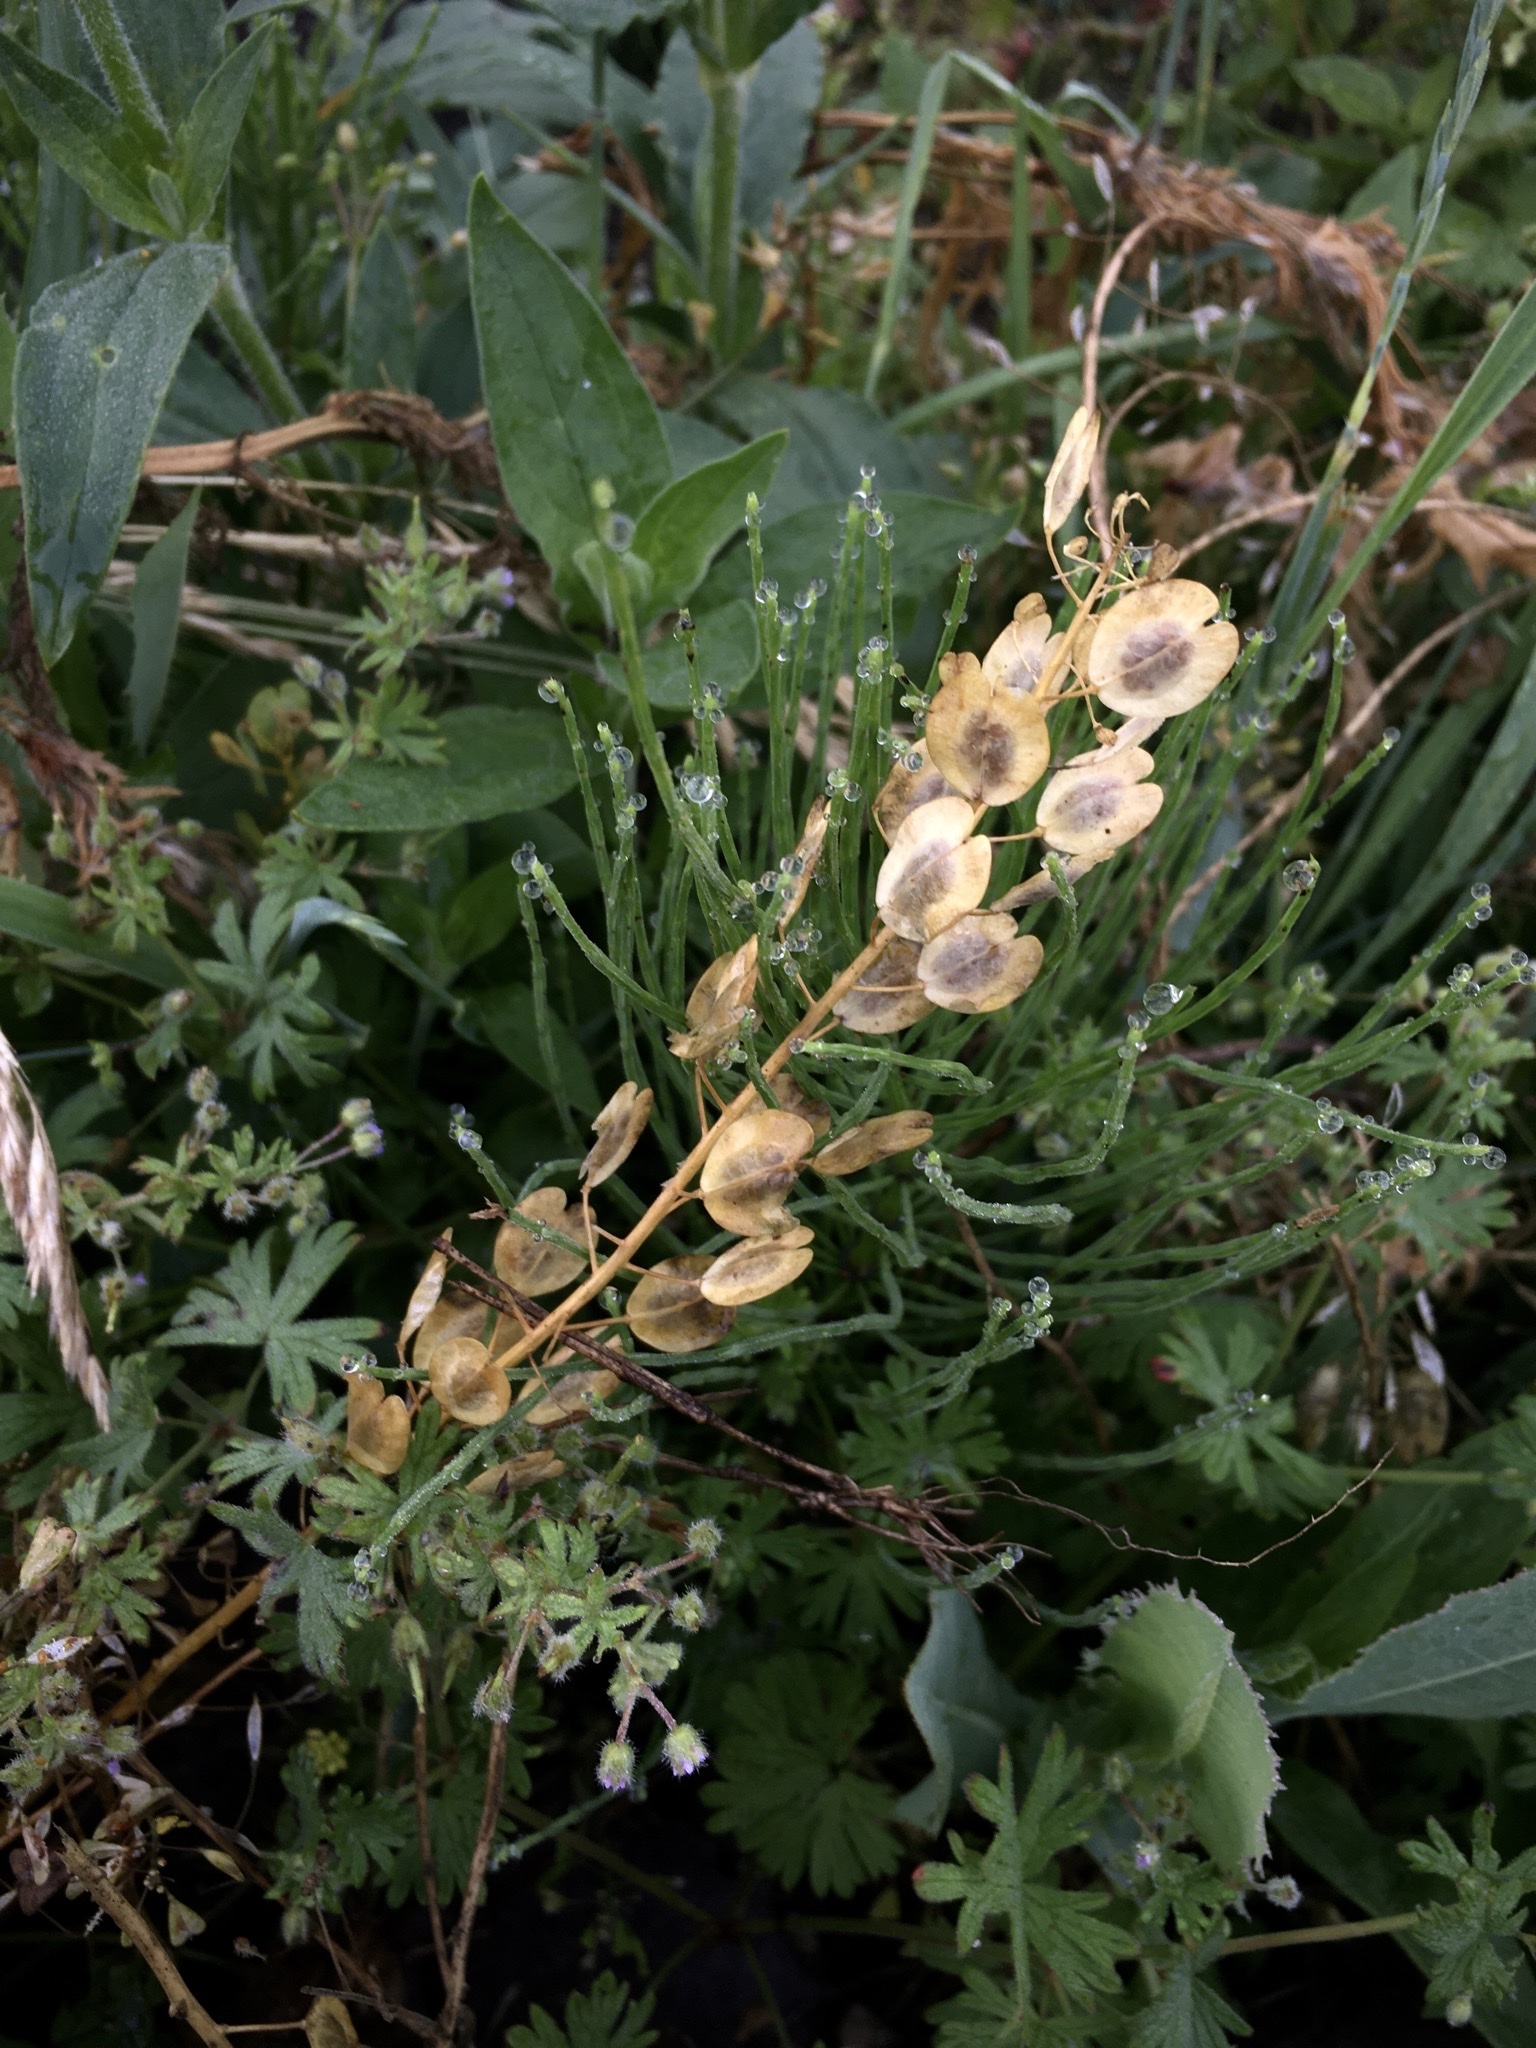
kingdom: Plantae
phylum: Tracheophyta
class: Magnoliopsida
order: Brassicales
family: Brassicaceae
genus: Thlaspi
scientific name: Thlaspi arvense
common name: Field pennycress
